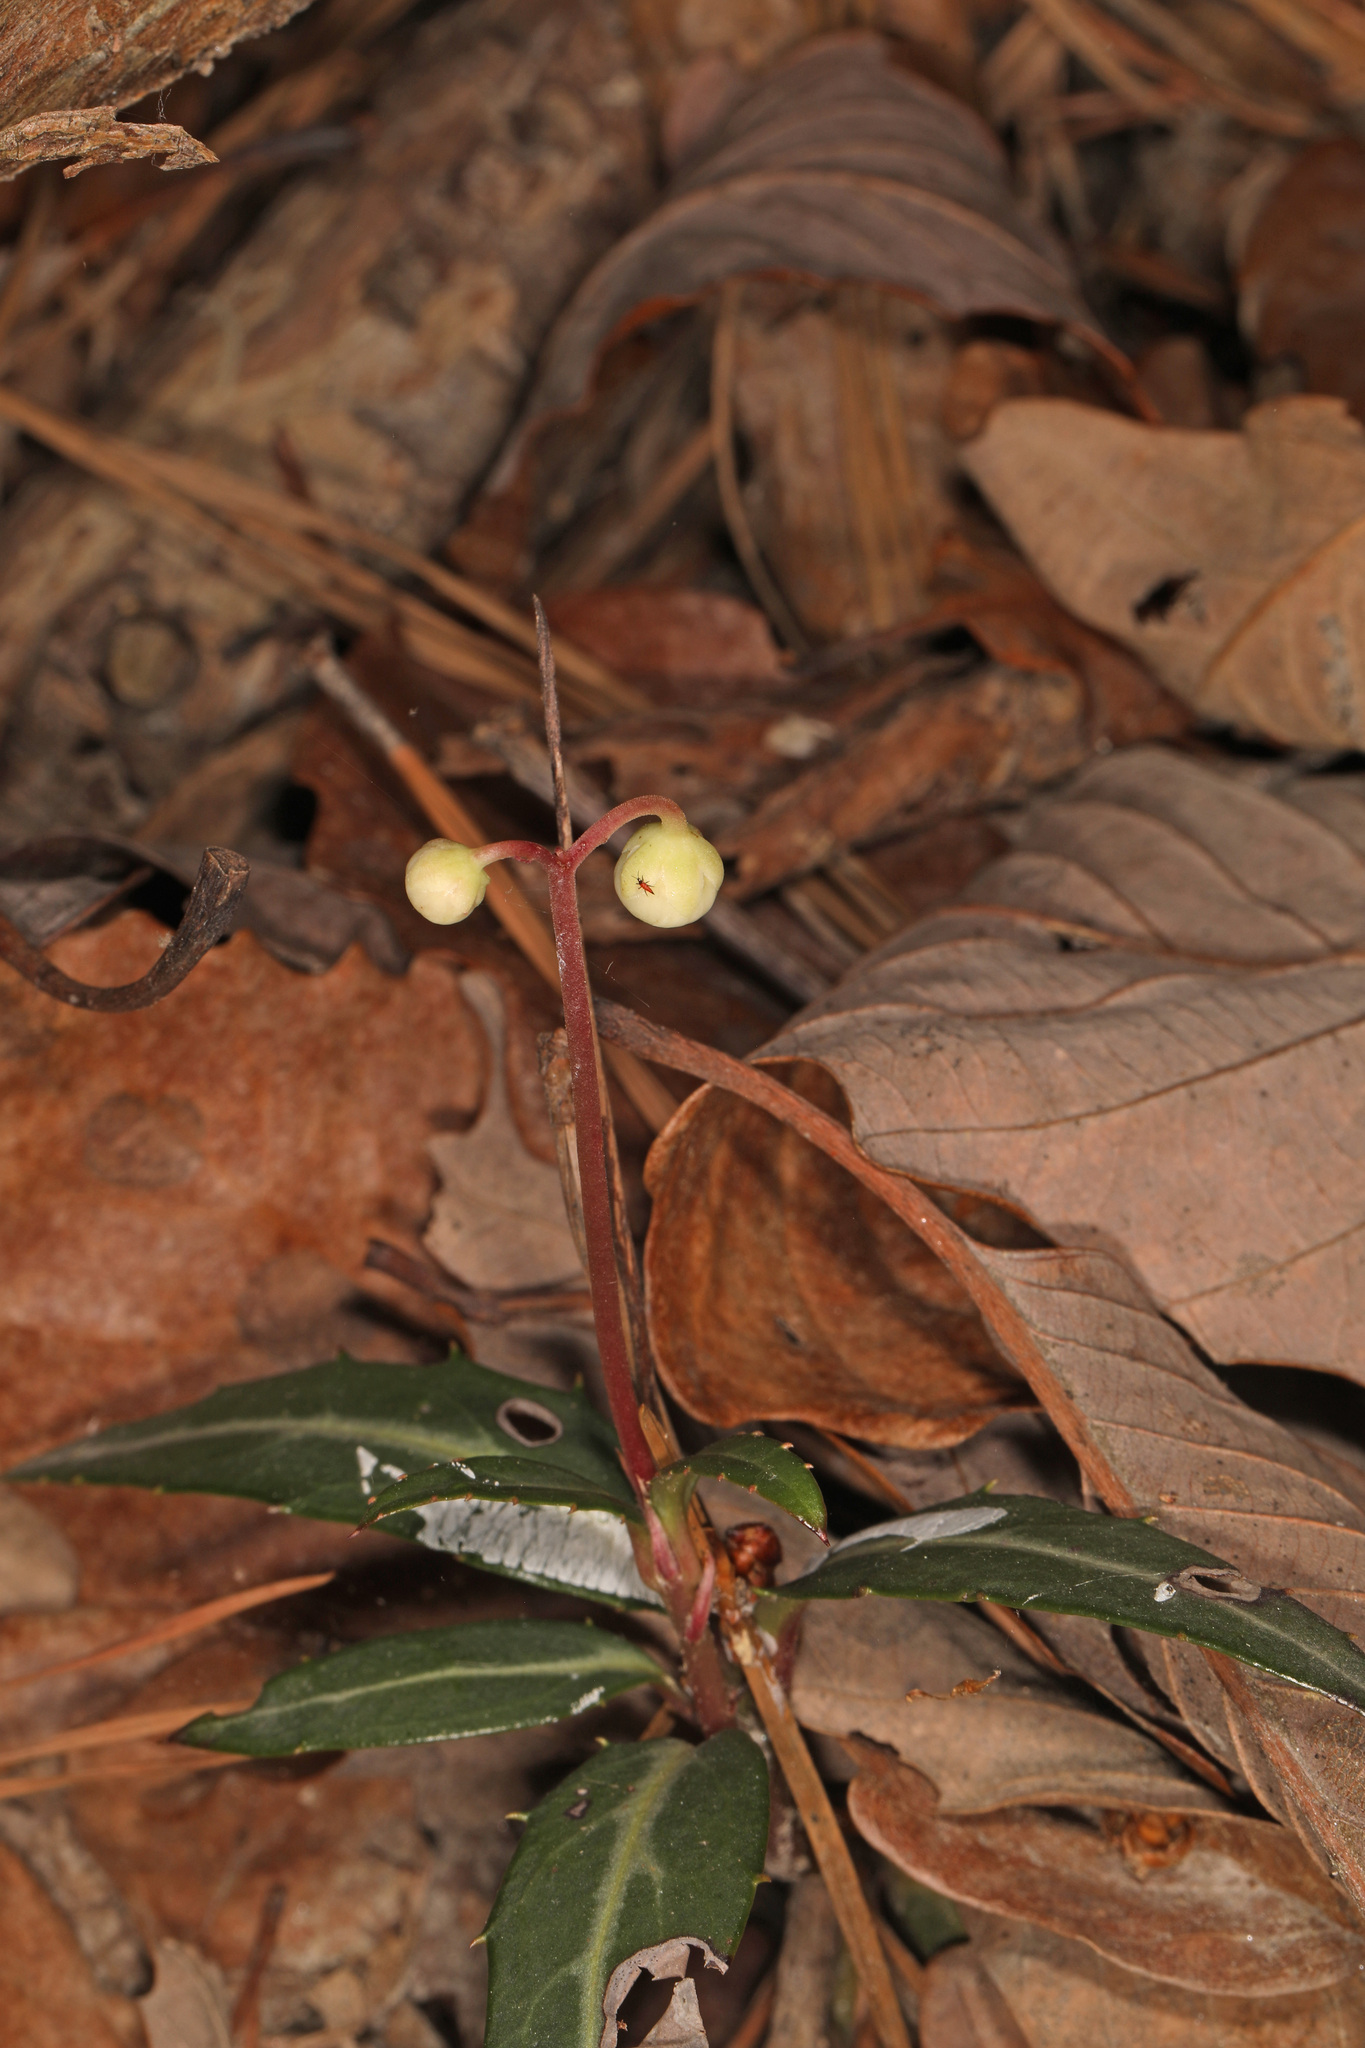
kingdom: Plantae
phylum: Tracheophyta
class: Magnoliopsida
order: Ericales
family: Ericaceae
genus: Chimaphila
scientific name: Chimaphila maculata
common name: Spotted pipsissewa
